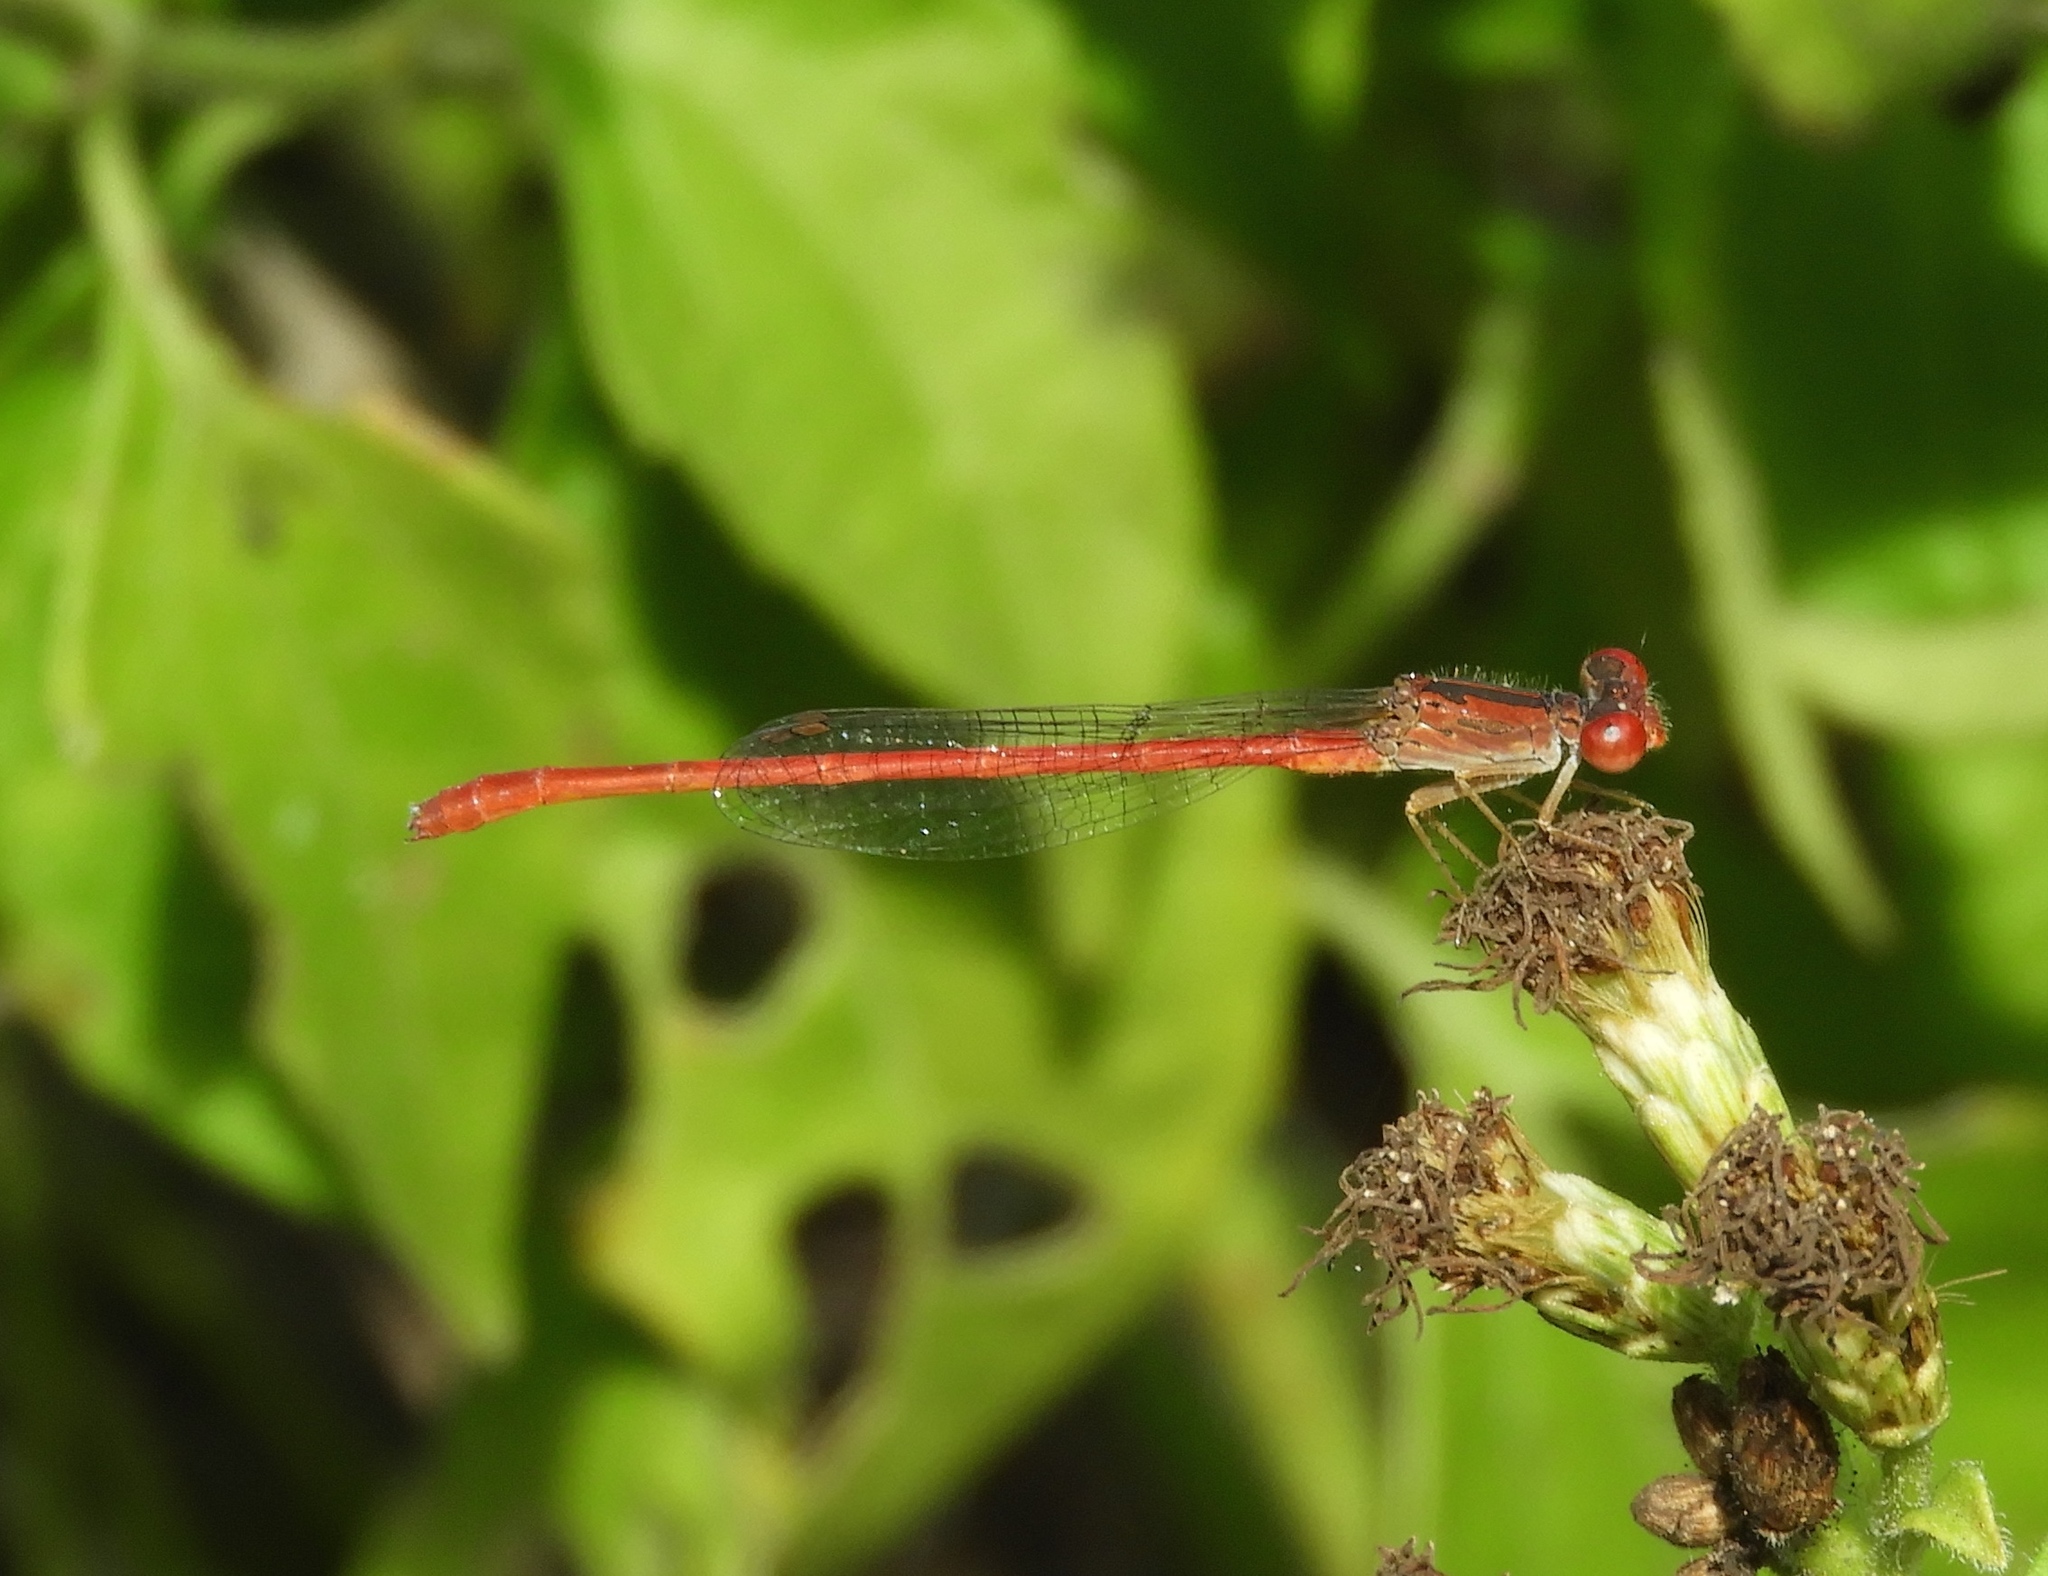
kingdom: Animalia
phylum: Arthropoda
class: Insecta
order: Odonata
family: Coenagrionidae
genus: Telebasis
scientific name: Telebasis salva
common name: Desert firetail
